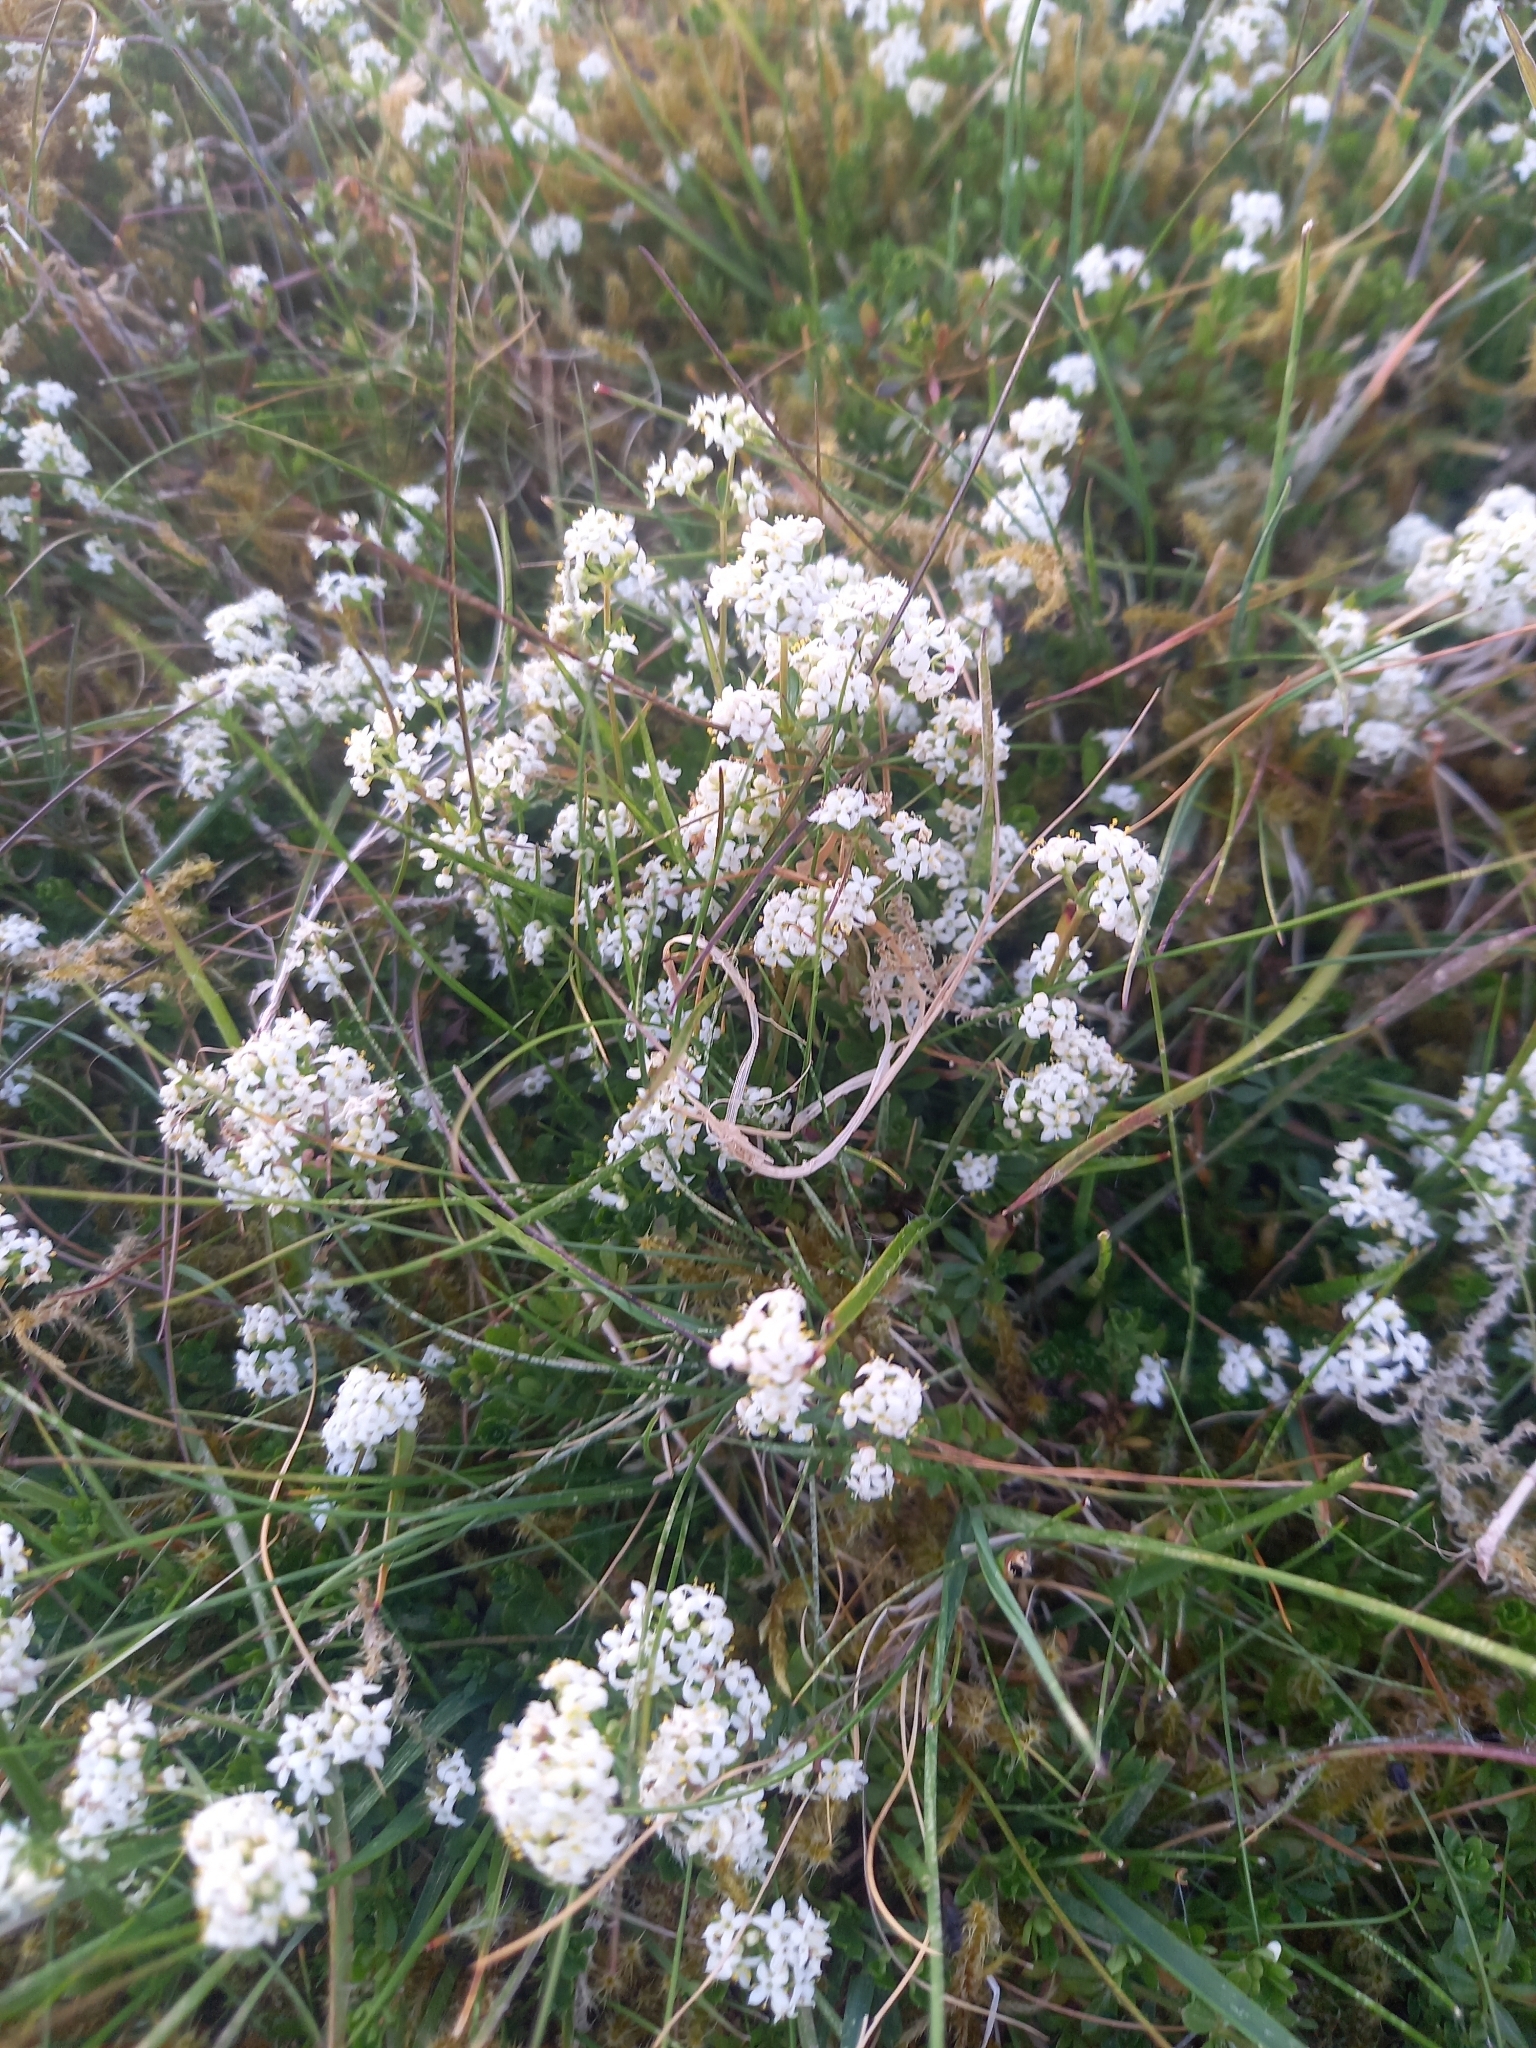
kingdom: Plantae
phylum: Tracheophyta
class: Magnoliopsida
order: Gentianales
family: Rubiaceae
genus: Galium
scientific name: Galium saxatile
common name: Heath bedstraw
